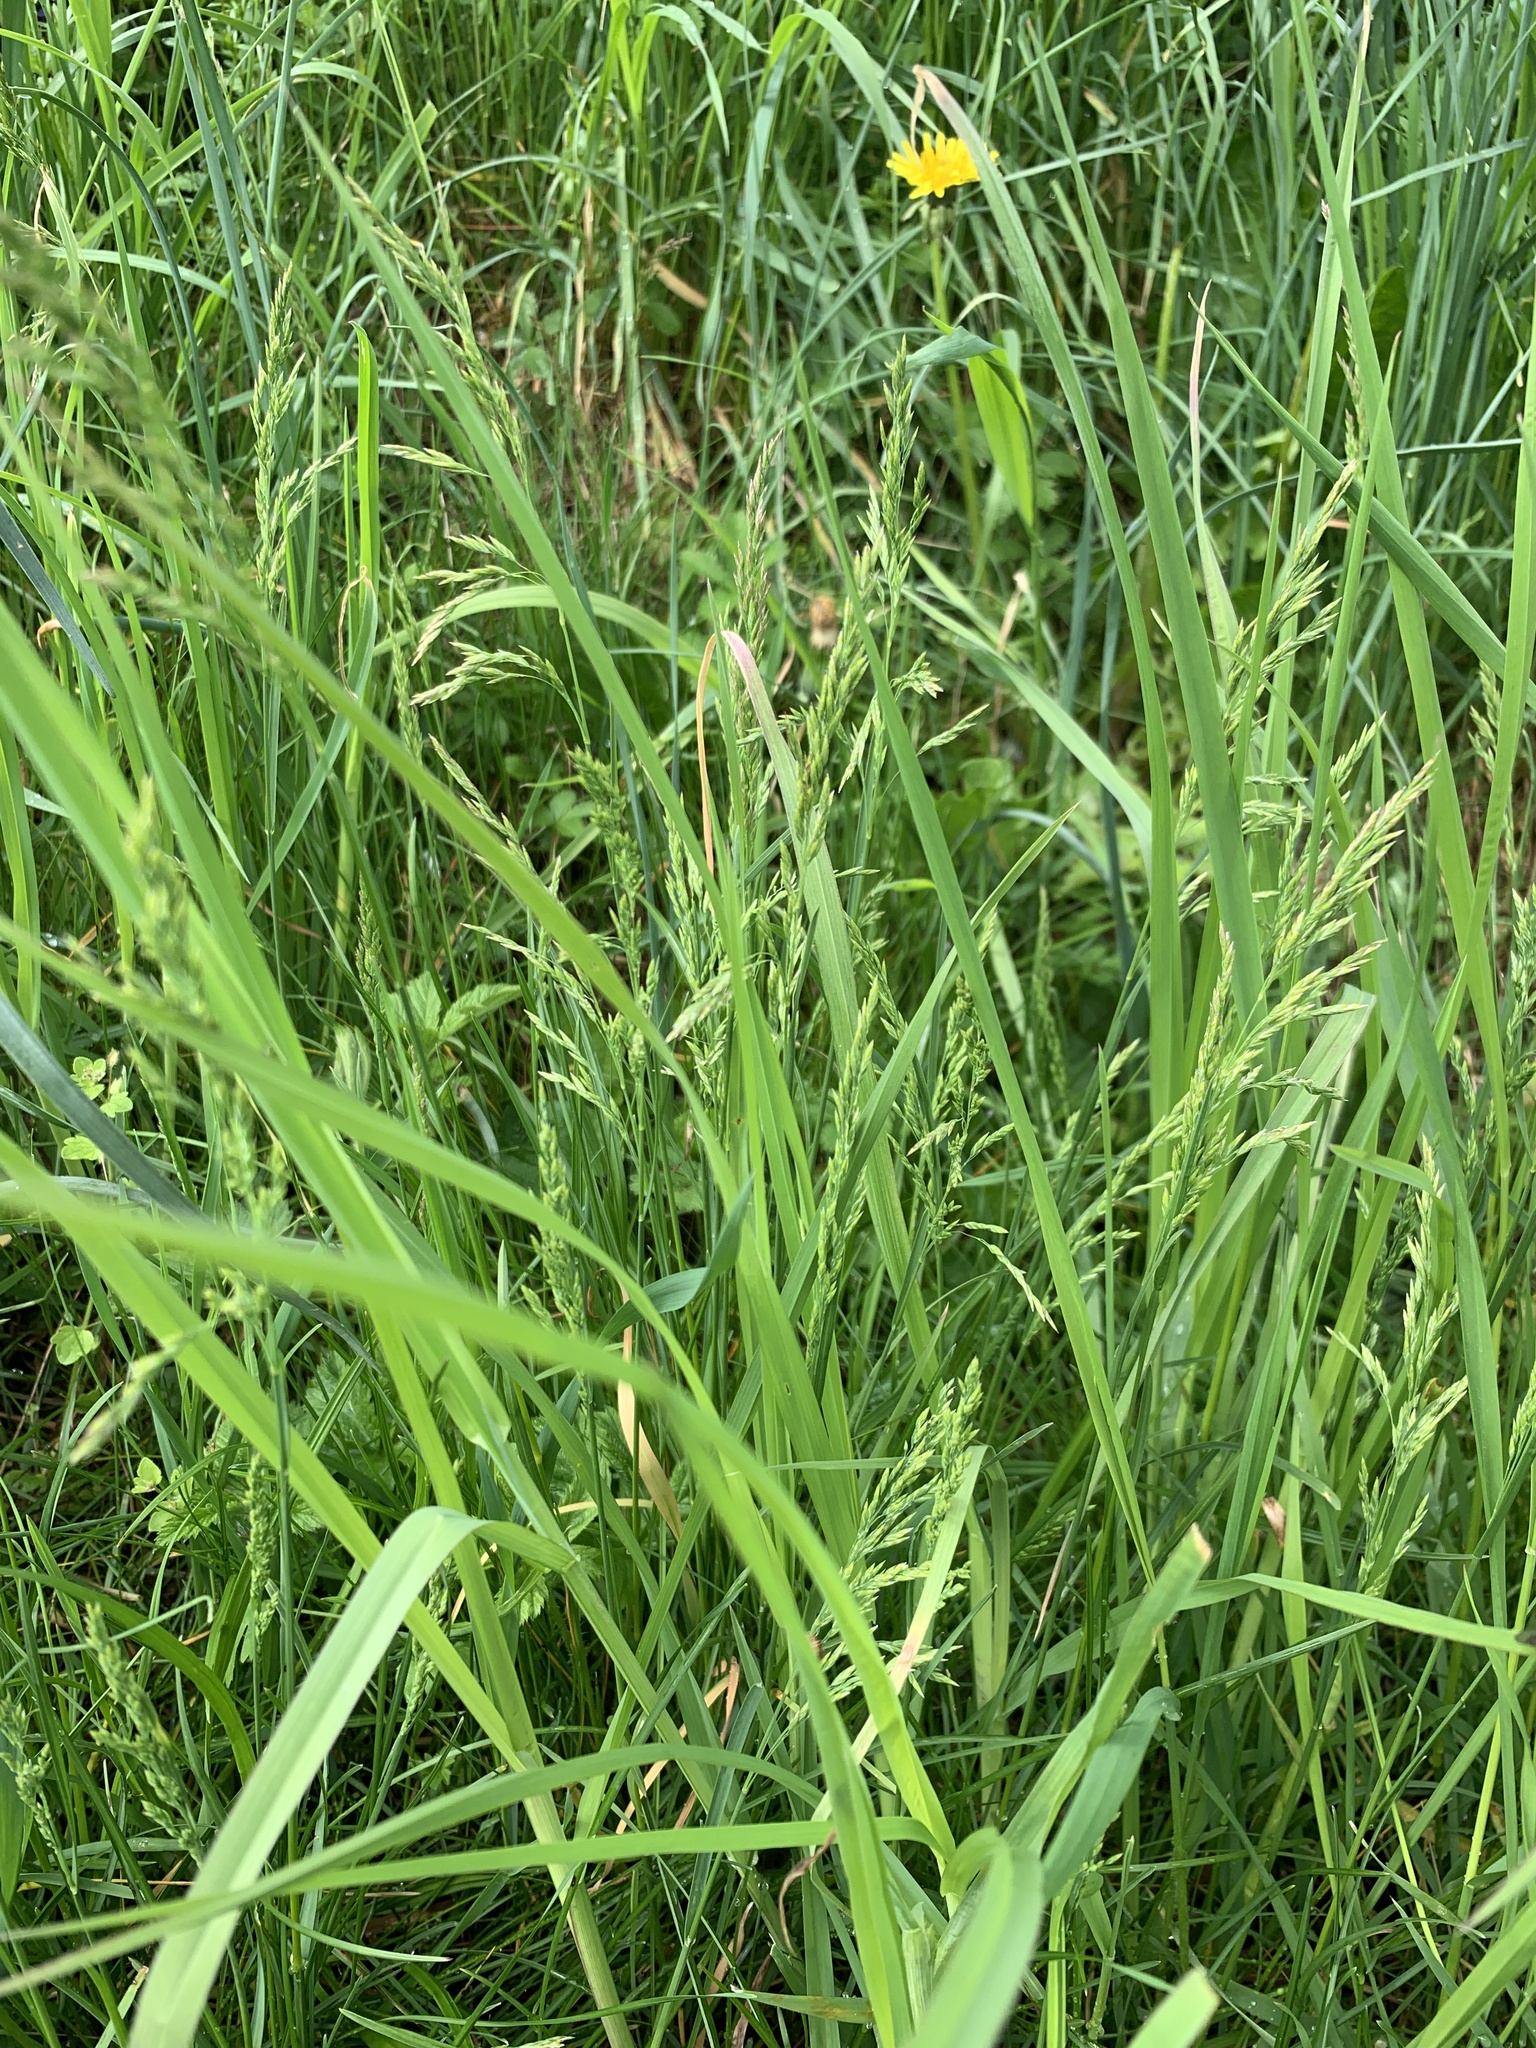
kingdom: Plantae
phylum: Tracheophyta
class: Liliopsida
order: Poales
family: Poaceae
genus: Poa
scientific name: Poa pratensis
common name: Kentucky bluegrass
